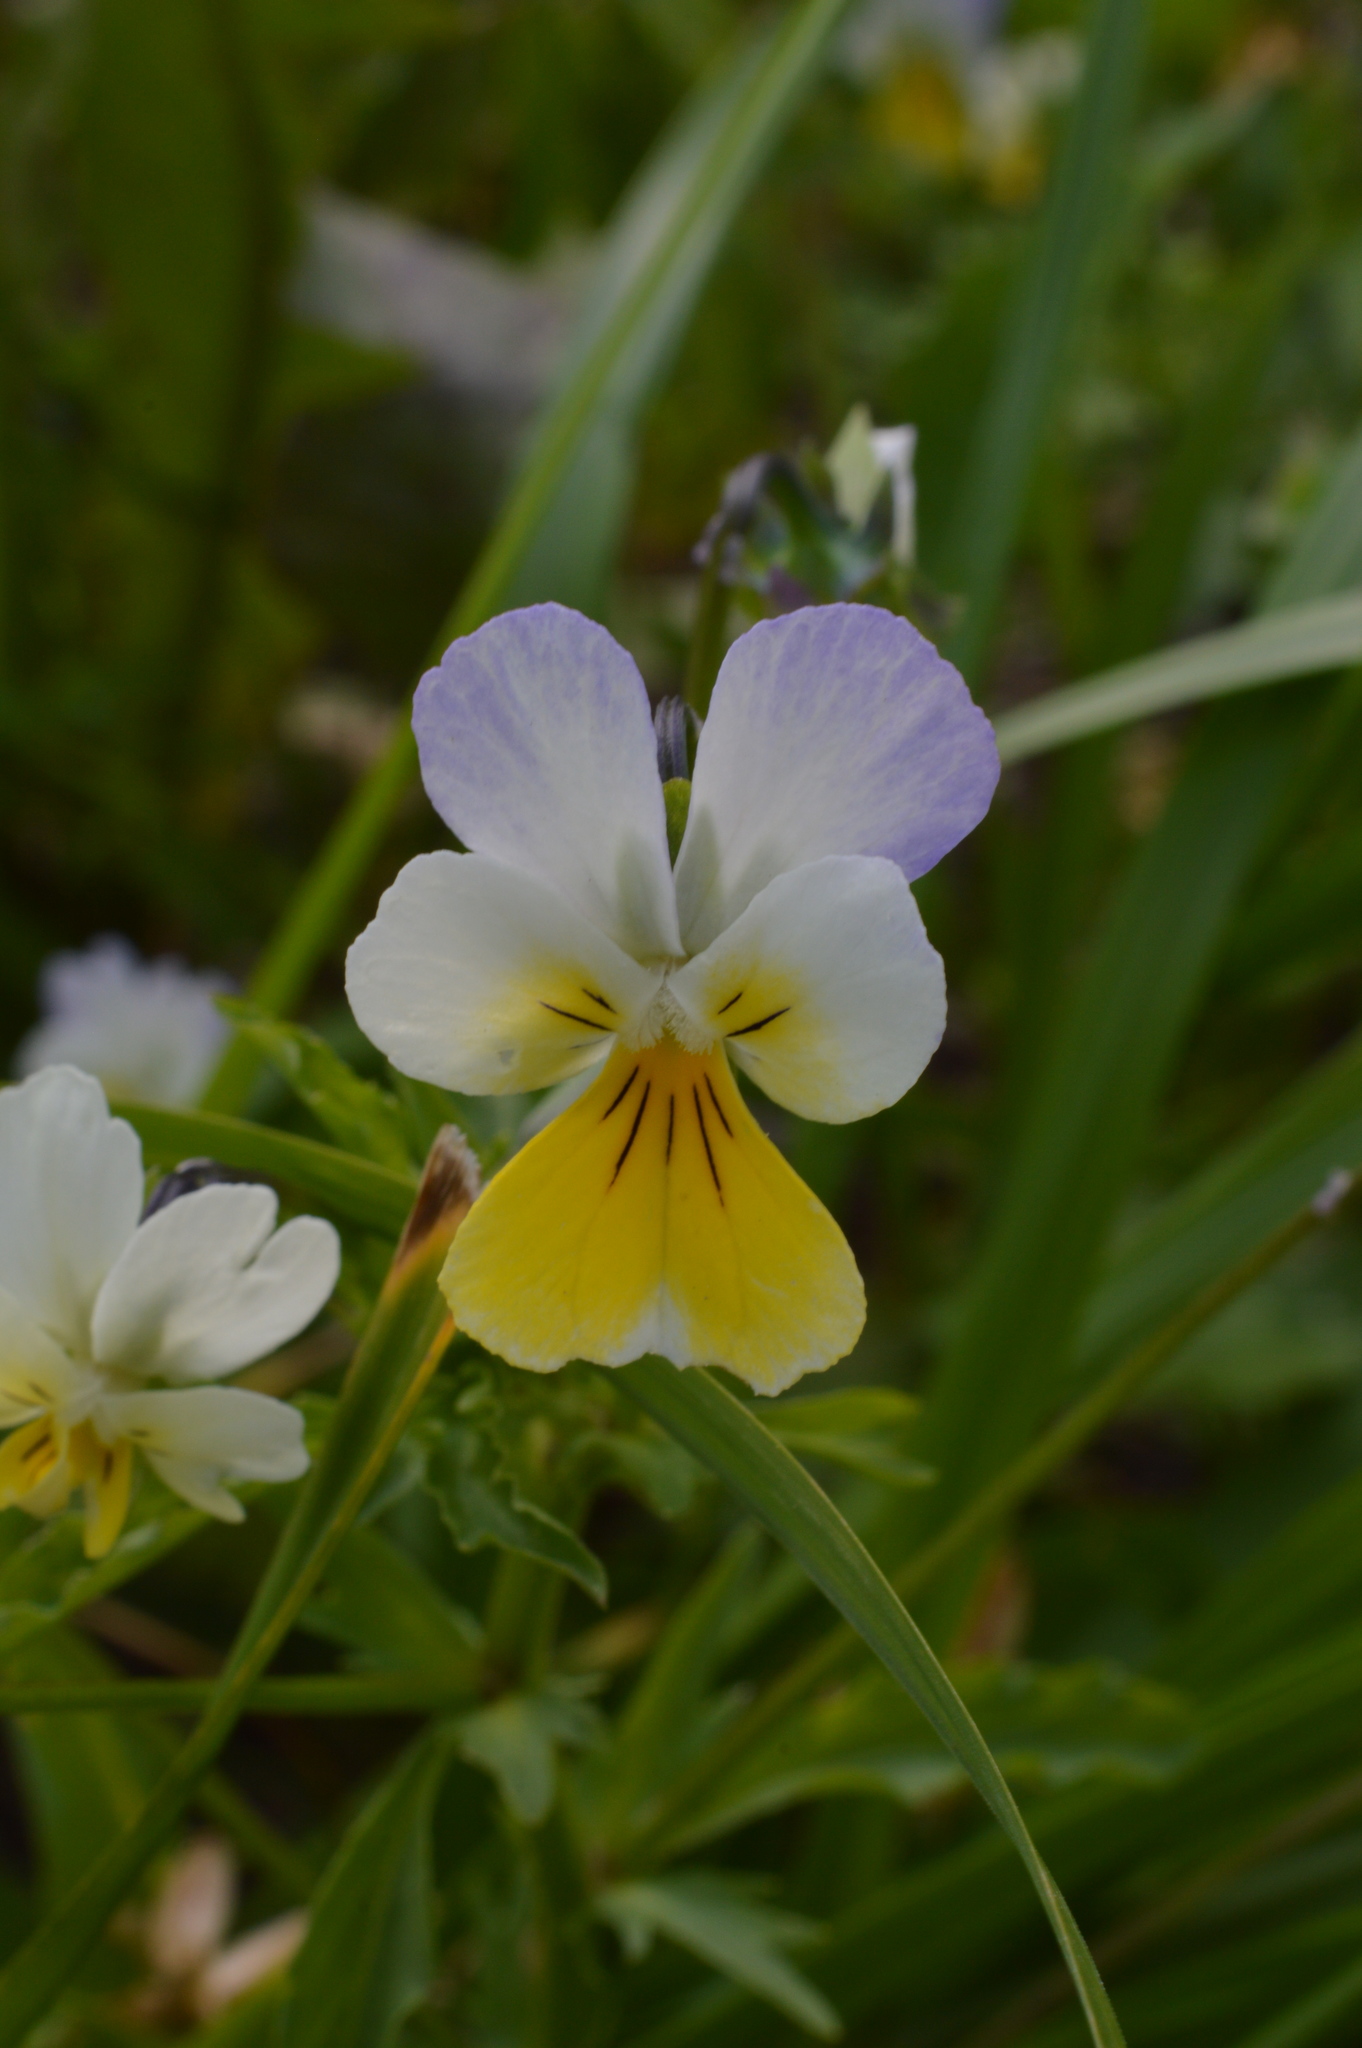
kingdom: Plantae
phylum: Tracheophyta
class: Magnoliopsida
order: Malpighiales
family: Violaceae
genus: Viola
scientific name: Viola tricolor
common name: Pansy
